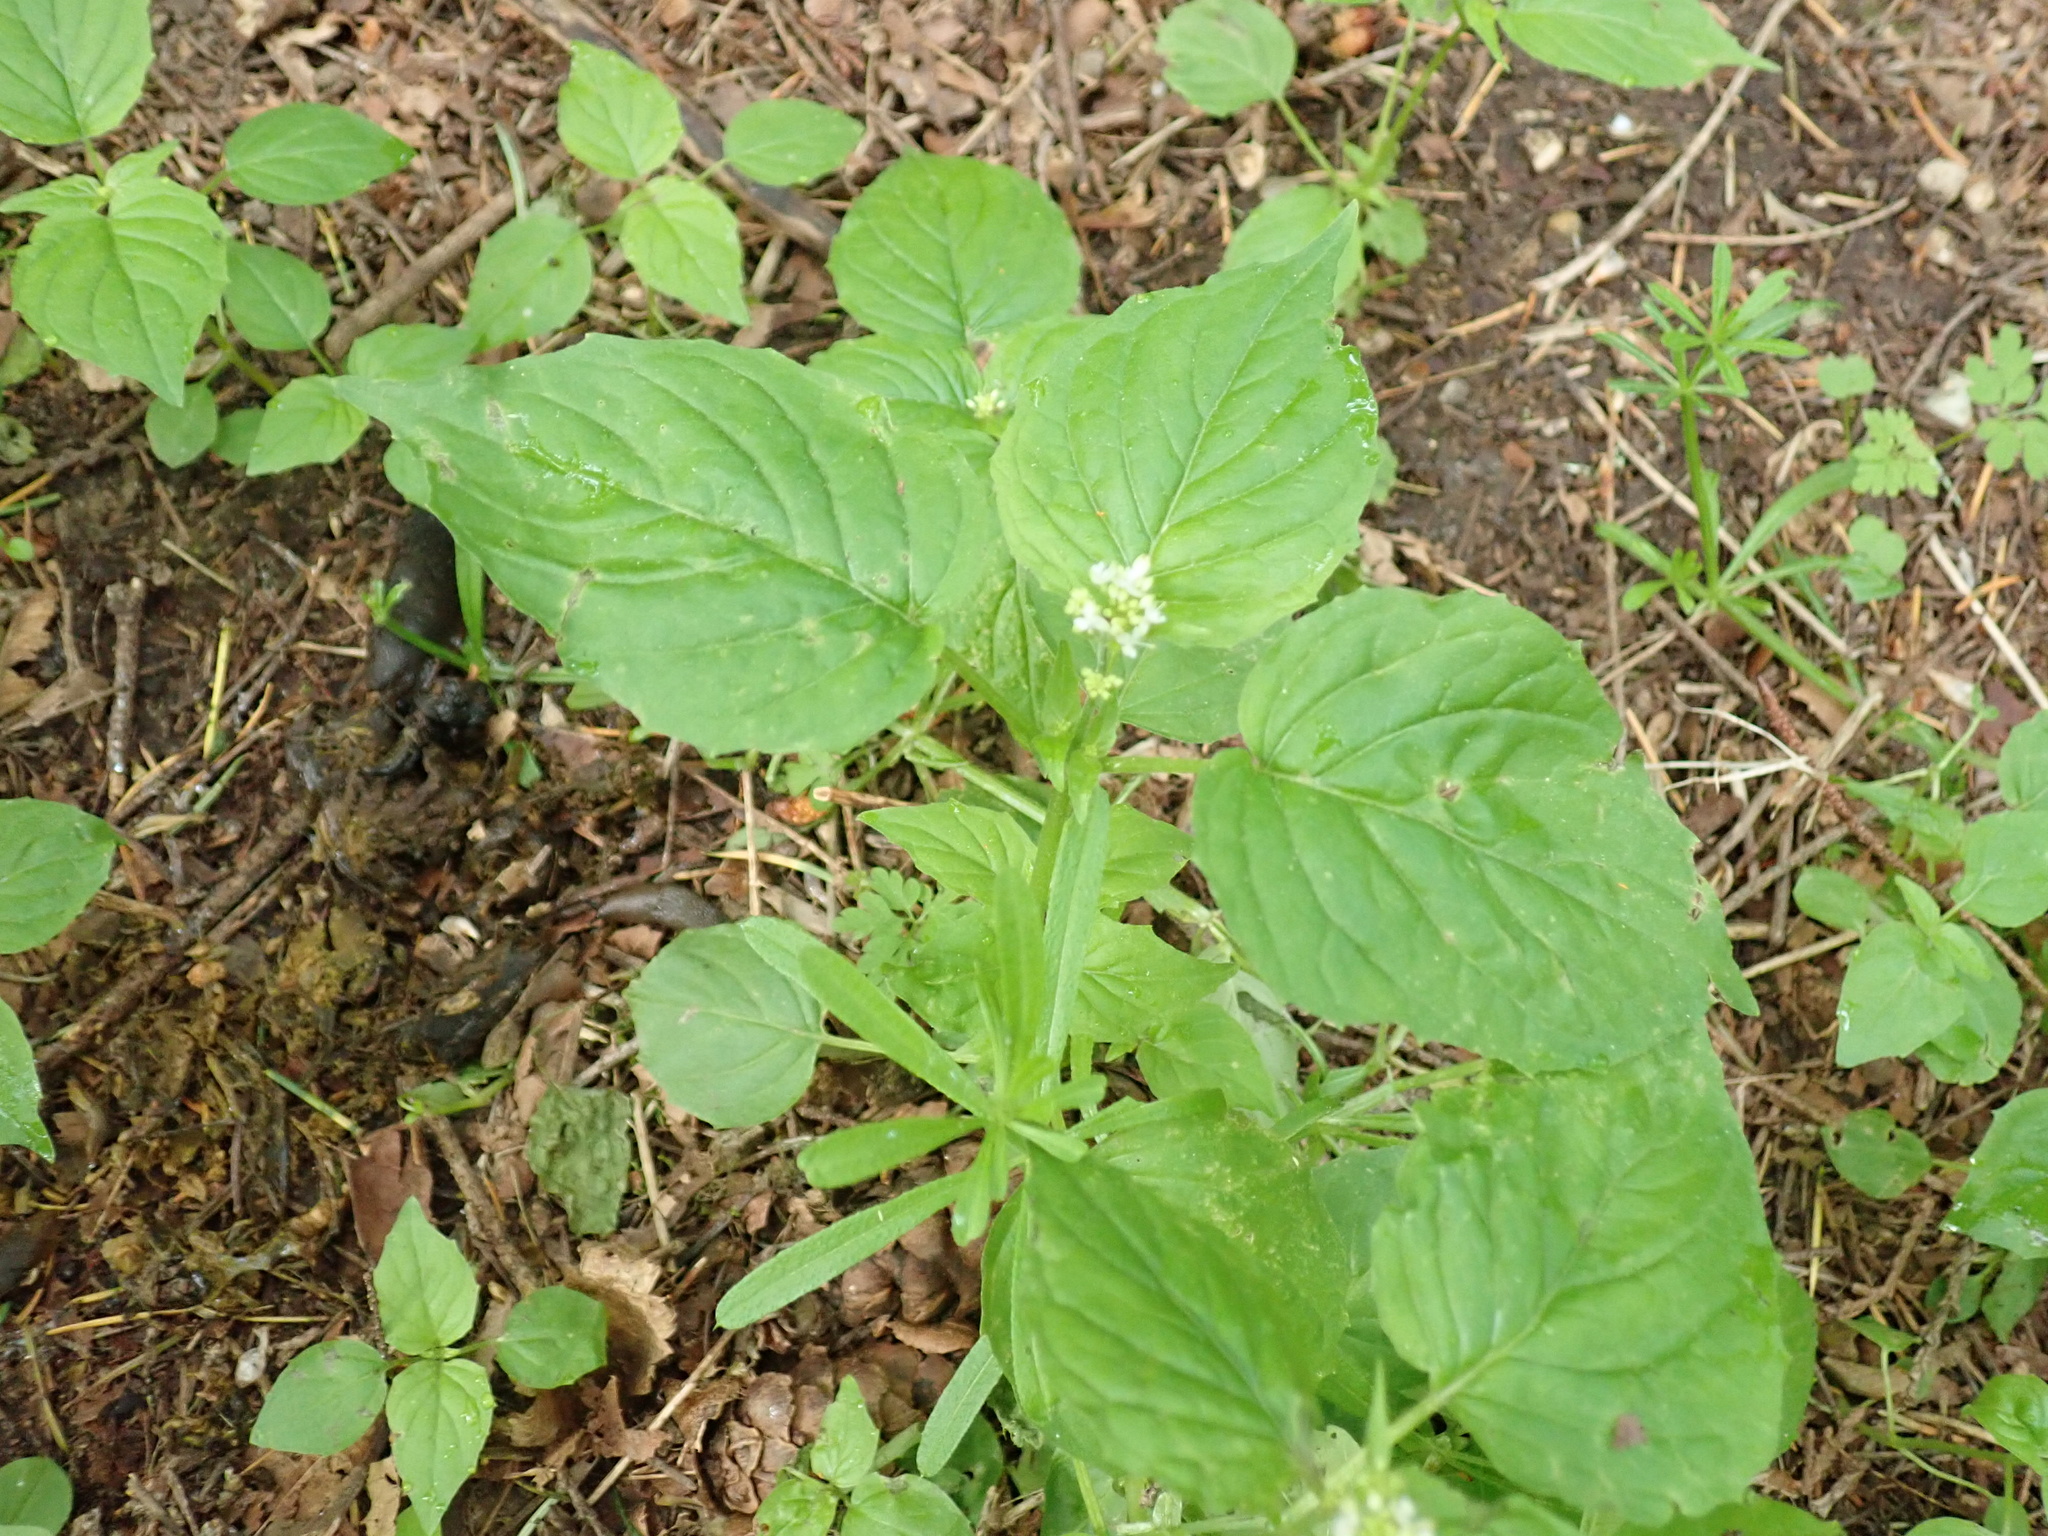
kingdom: Plantae
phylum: Tracheophyta
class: Magnoliopsida
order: Myrtales
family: Onagraceae
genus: Circaea
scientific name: Circaea alpina
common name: Alpine enchanter's-nightshade
